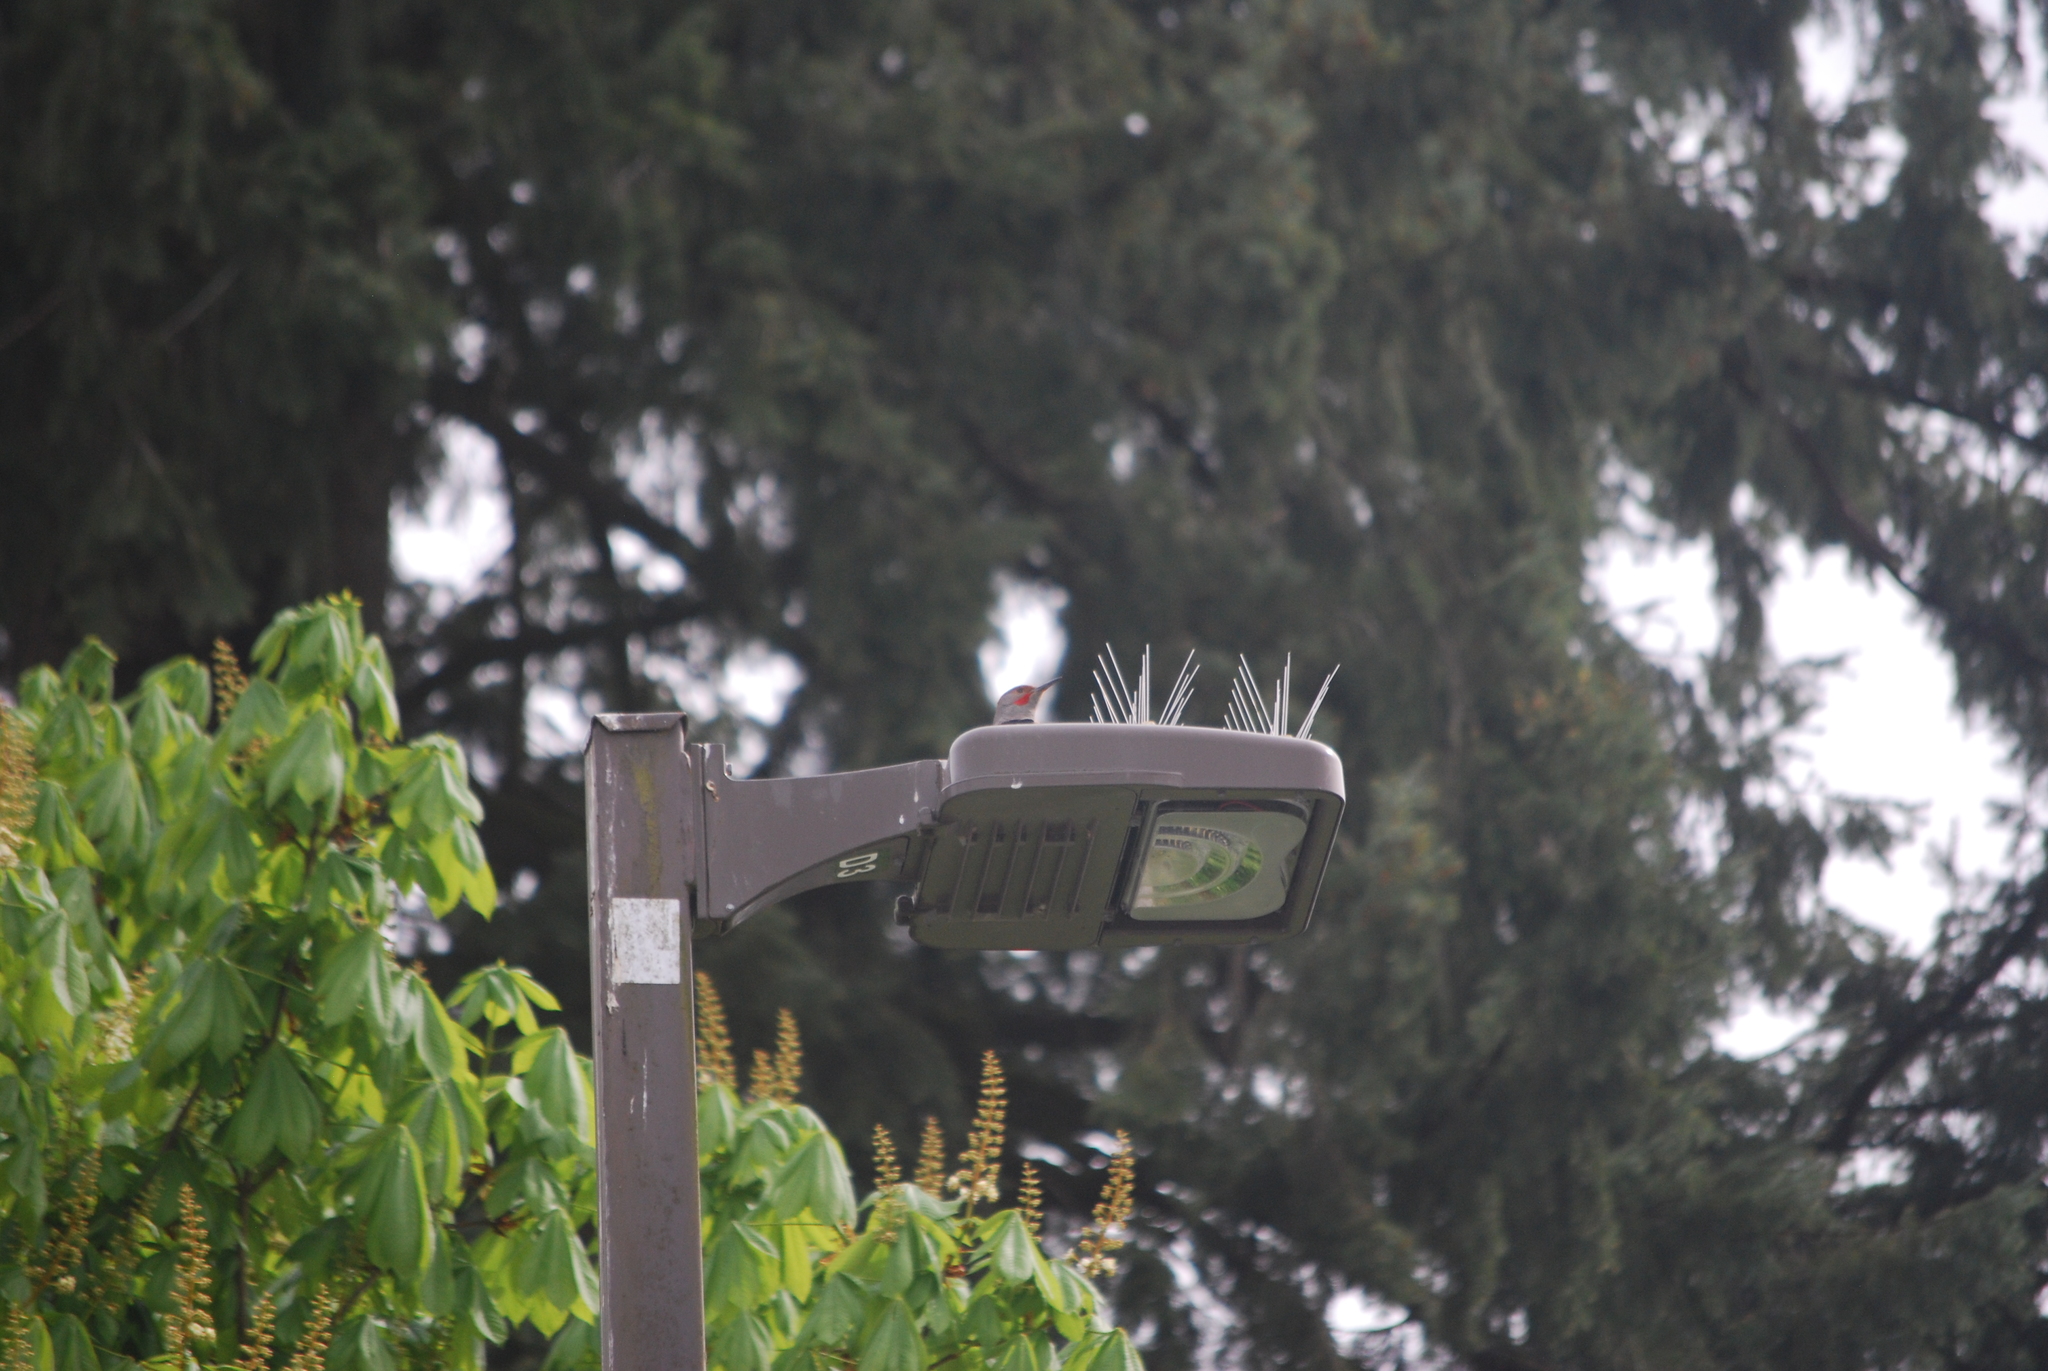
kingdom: Animalia
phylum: Chordata
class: Aves
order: Piciformes
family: Picidae
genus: Colaptes
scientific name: Colaptes auratus
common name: Northern flicker
